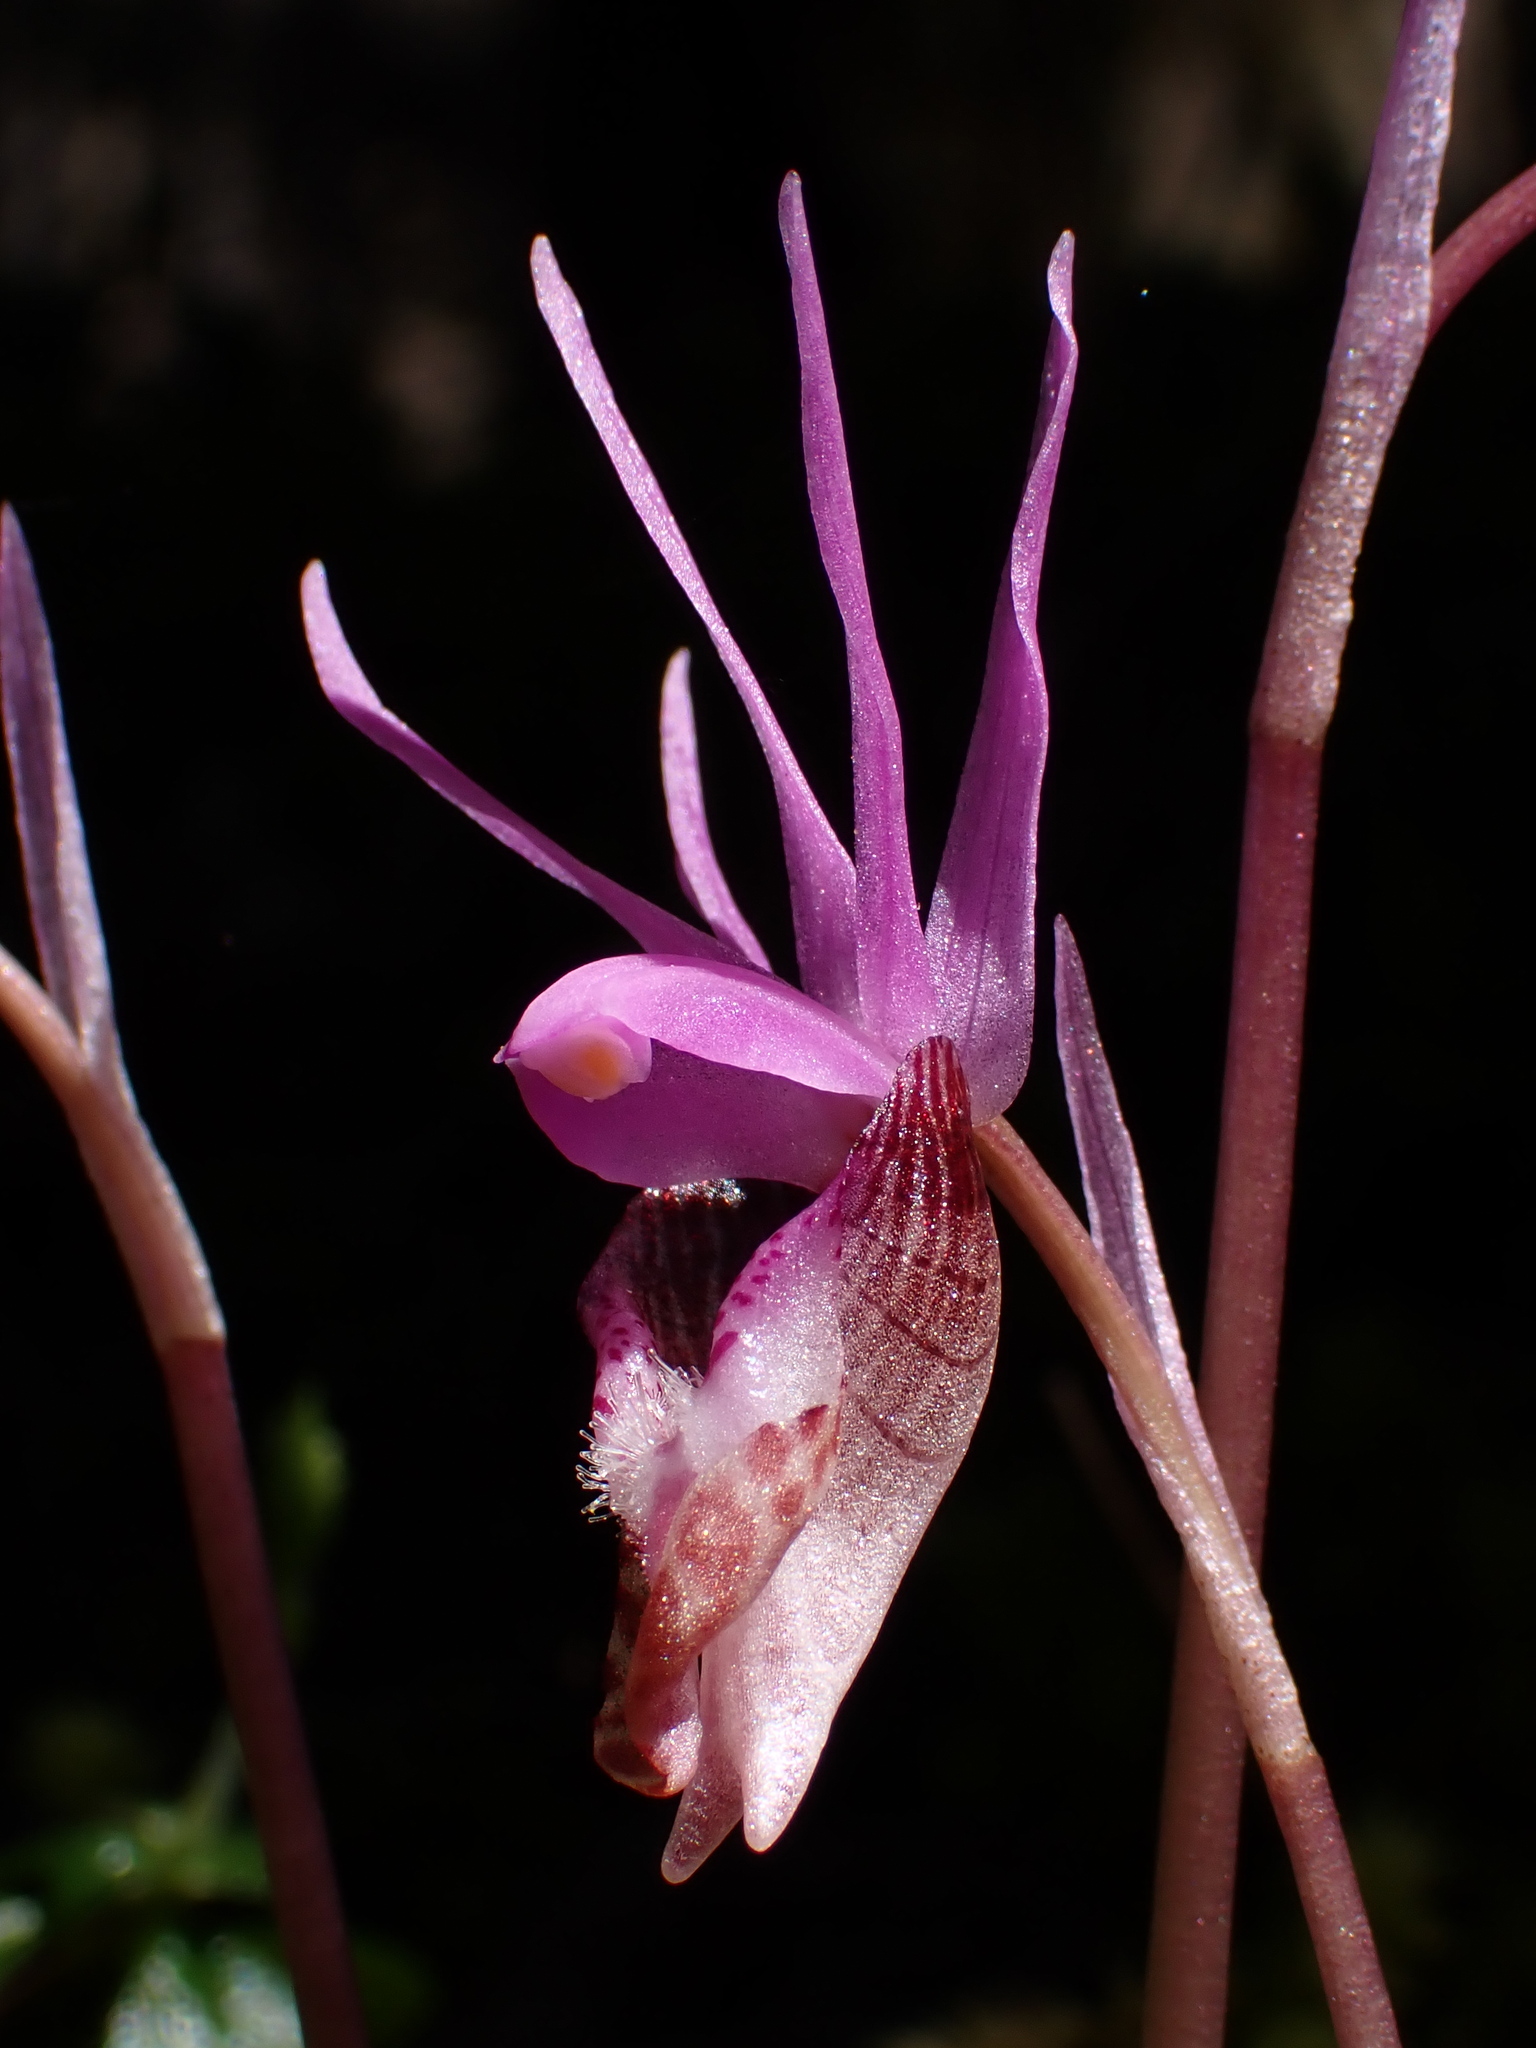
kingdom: Plantae
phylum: Tracheophyta
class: Liliopsida
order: Asparagales
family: Orchidaceae
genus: Calypso
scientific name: Calypso bulbosa
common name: Calypso
